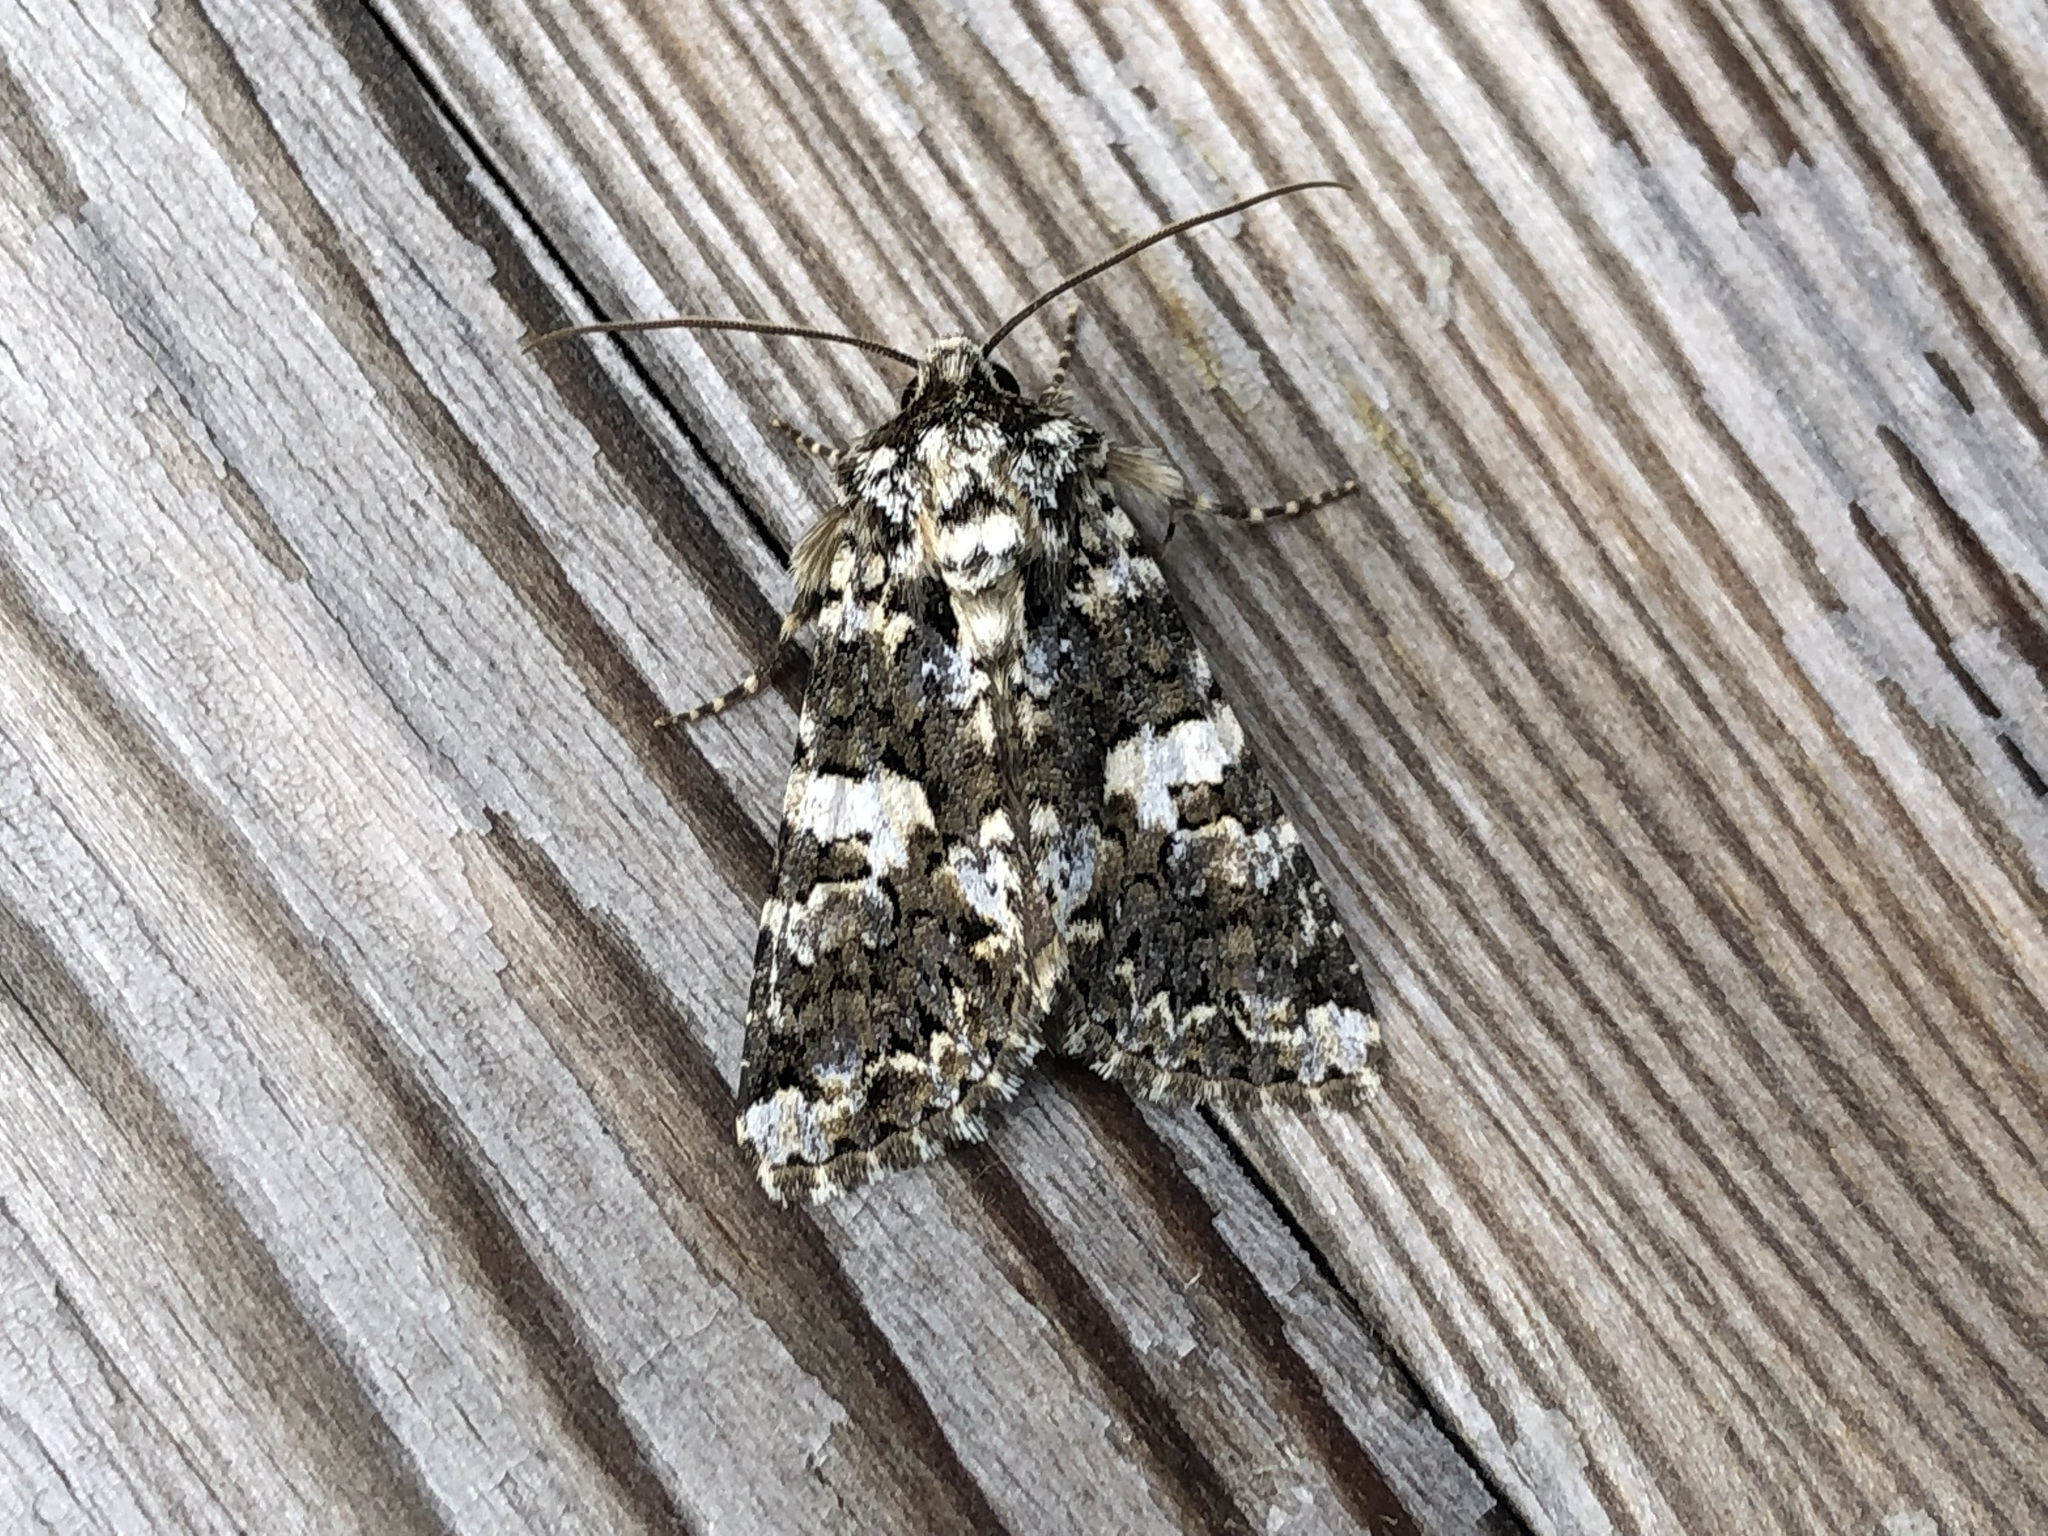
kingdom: Animalia
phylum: Arthropoda
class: Insecta
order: Lepidoptera
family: Noctuidae
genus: Hadena
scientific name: Hadena confusa
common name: Marbled coronet
